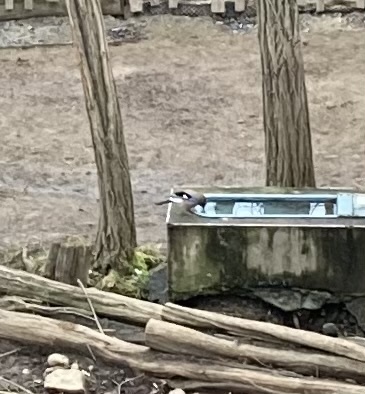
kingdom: Animalia
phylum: Chordata
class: Aves
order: Passeriformes
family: Corvidae
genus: Garrulus
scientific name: Garrulus glandarius
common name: Eurasian jay
